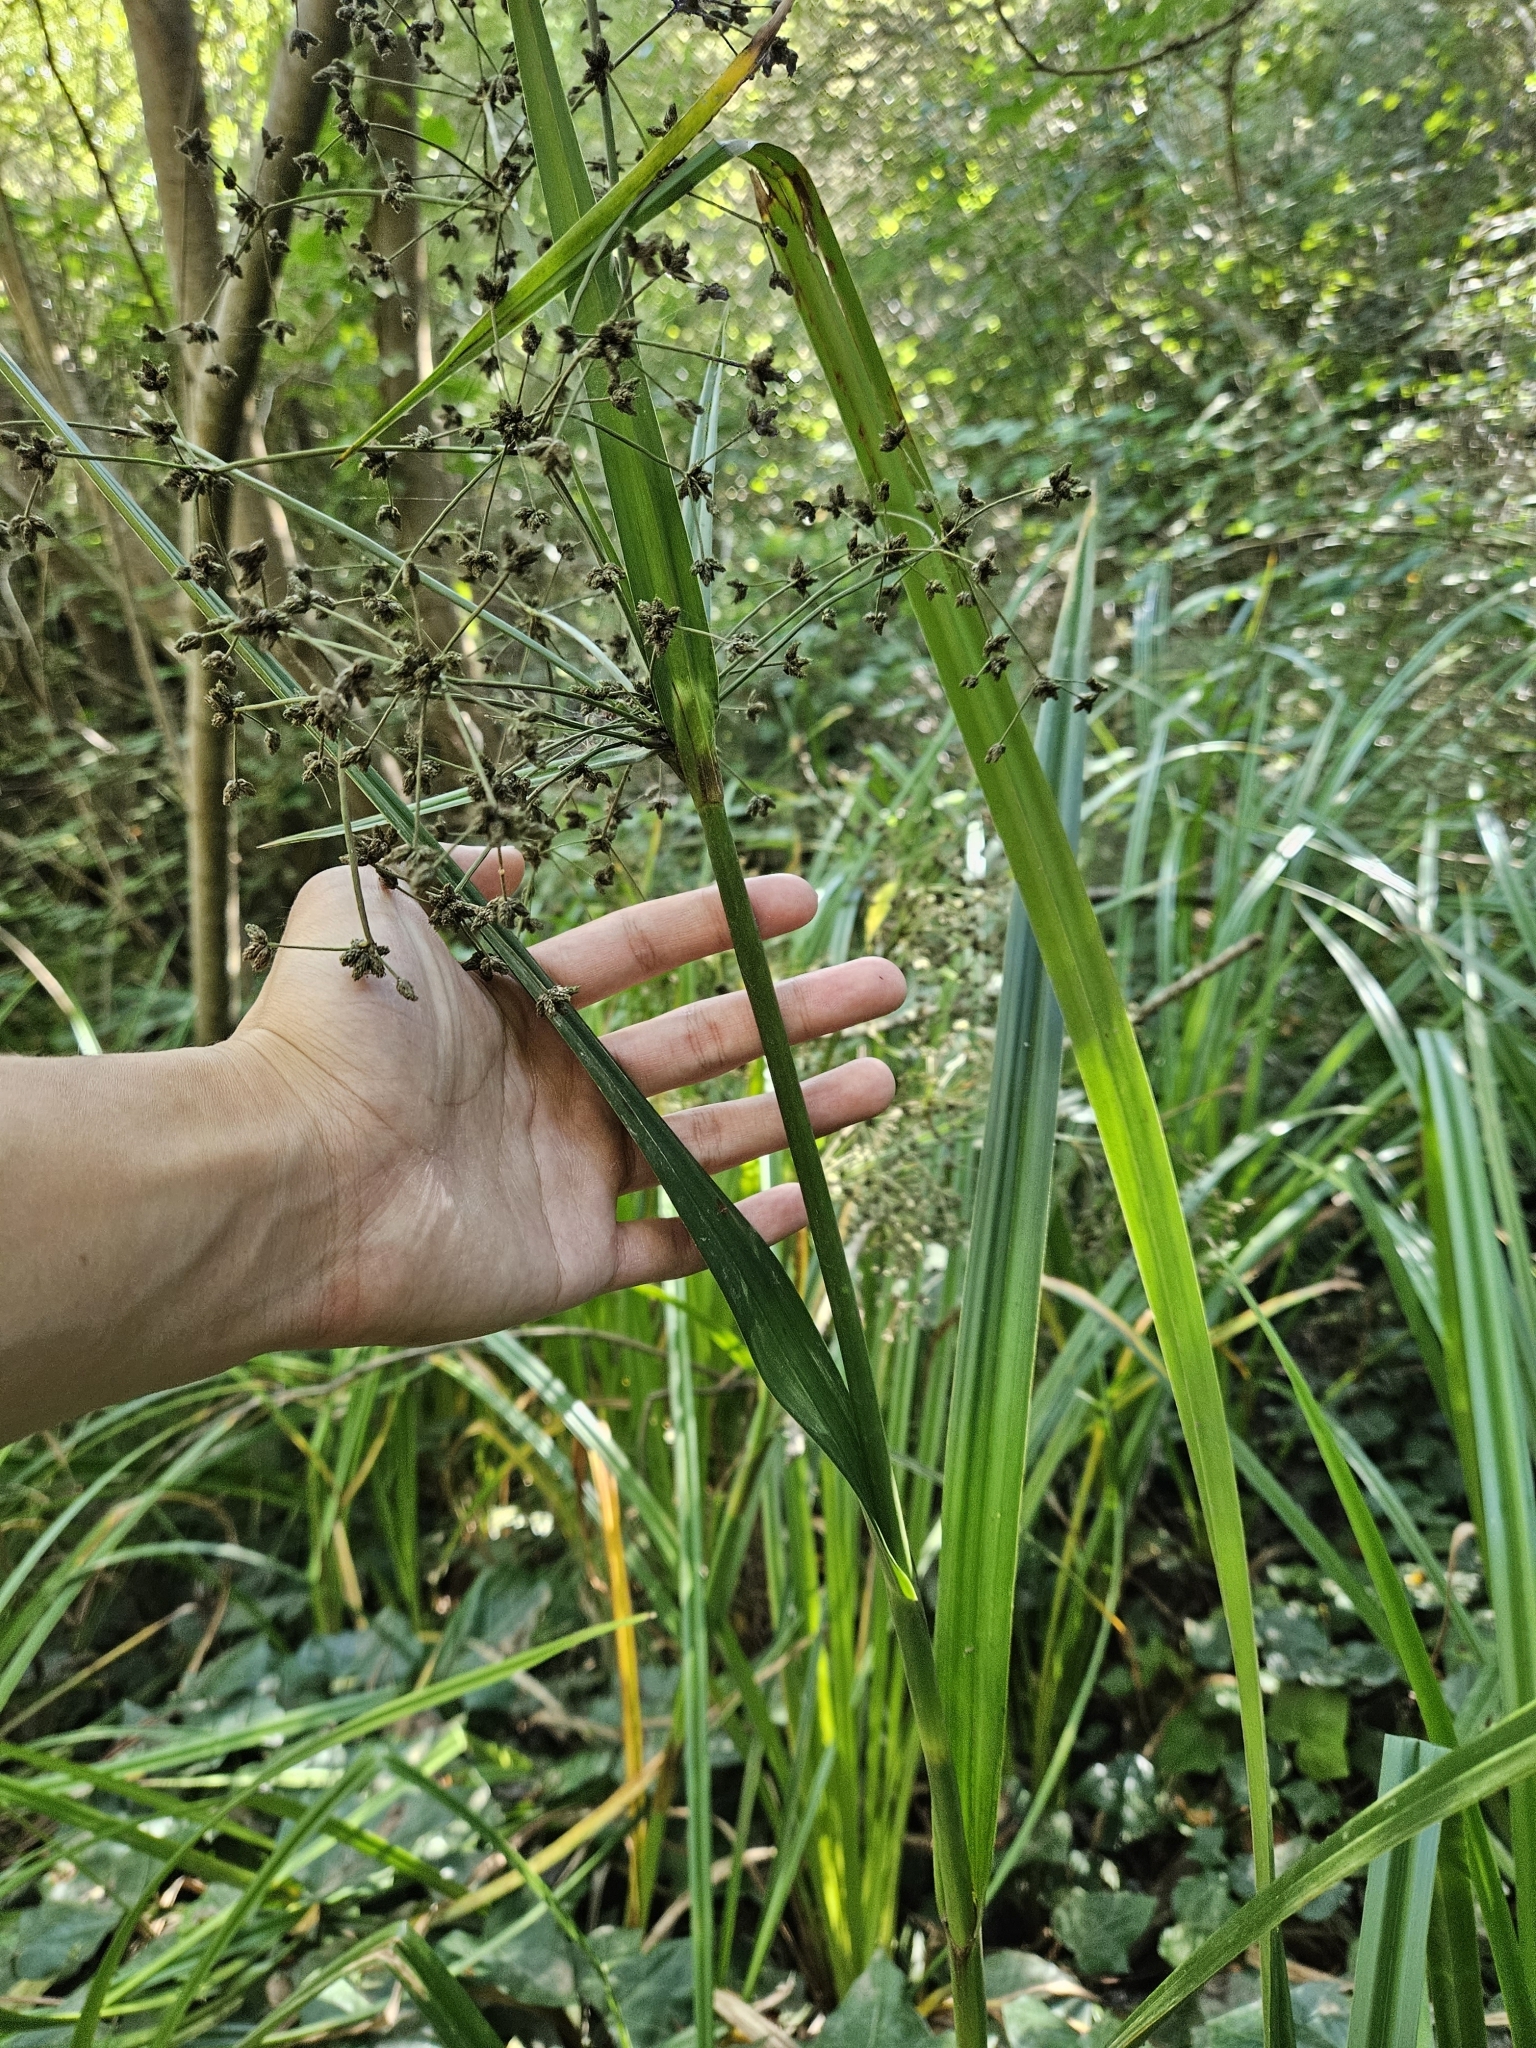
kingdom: Plantae
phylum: Tracheophyta
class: Liliopsida
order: Poales
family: Cyperaceae
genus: Scirpus
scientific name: Scirpus microcarpus
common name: Panicled bulrush
